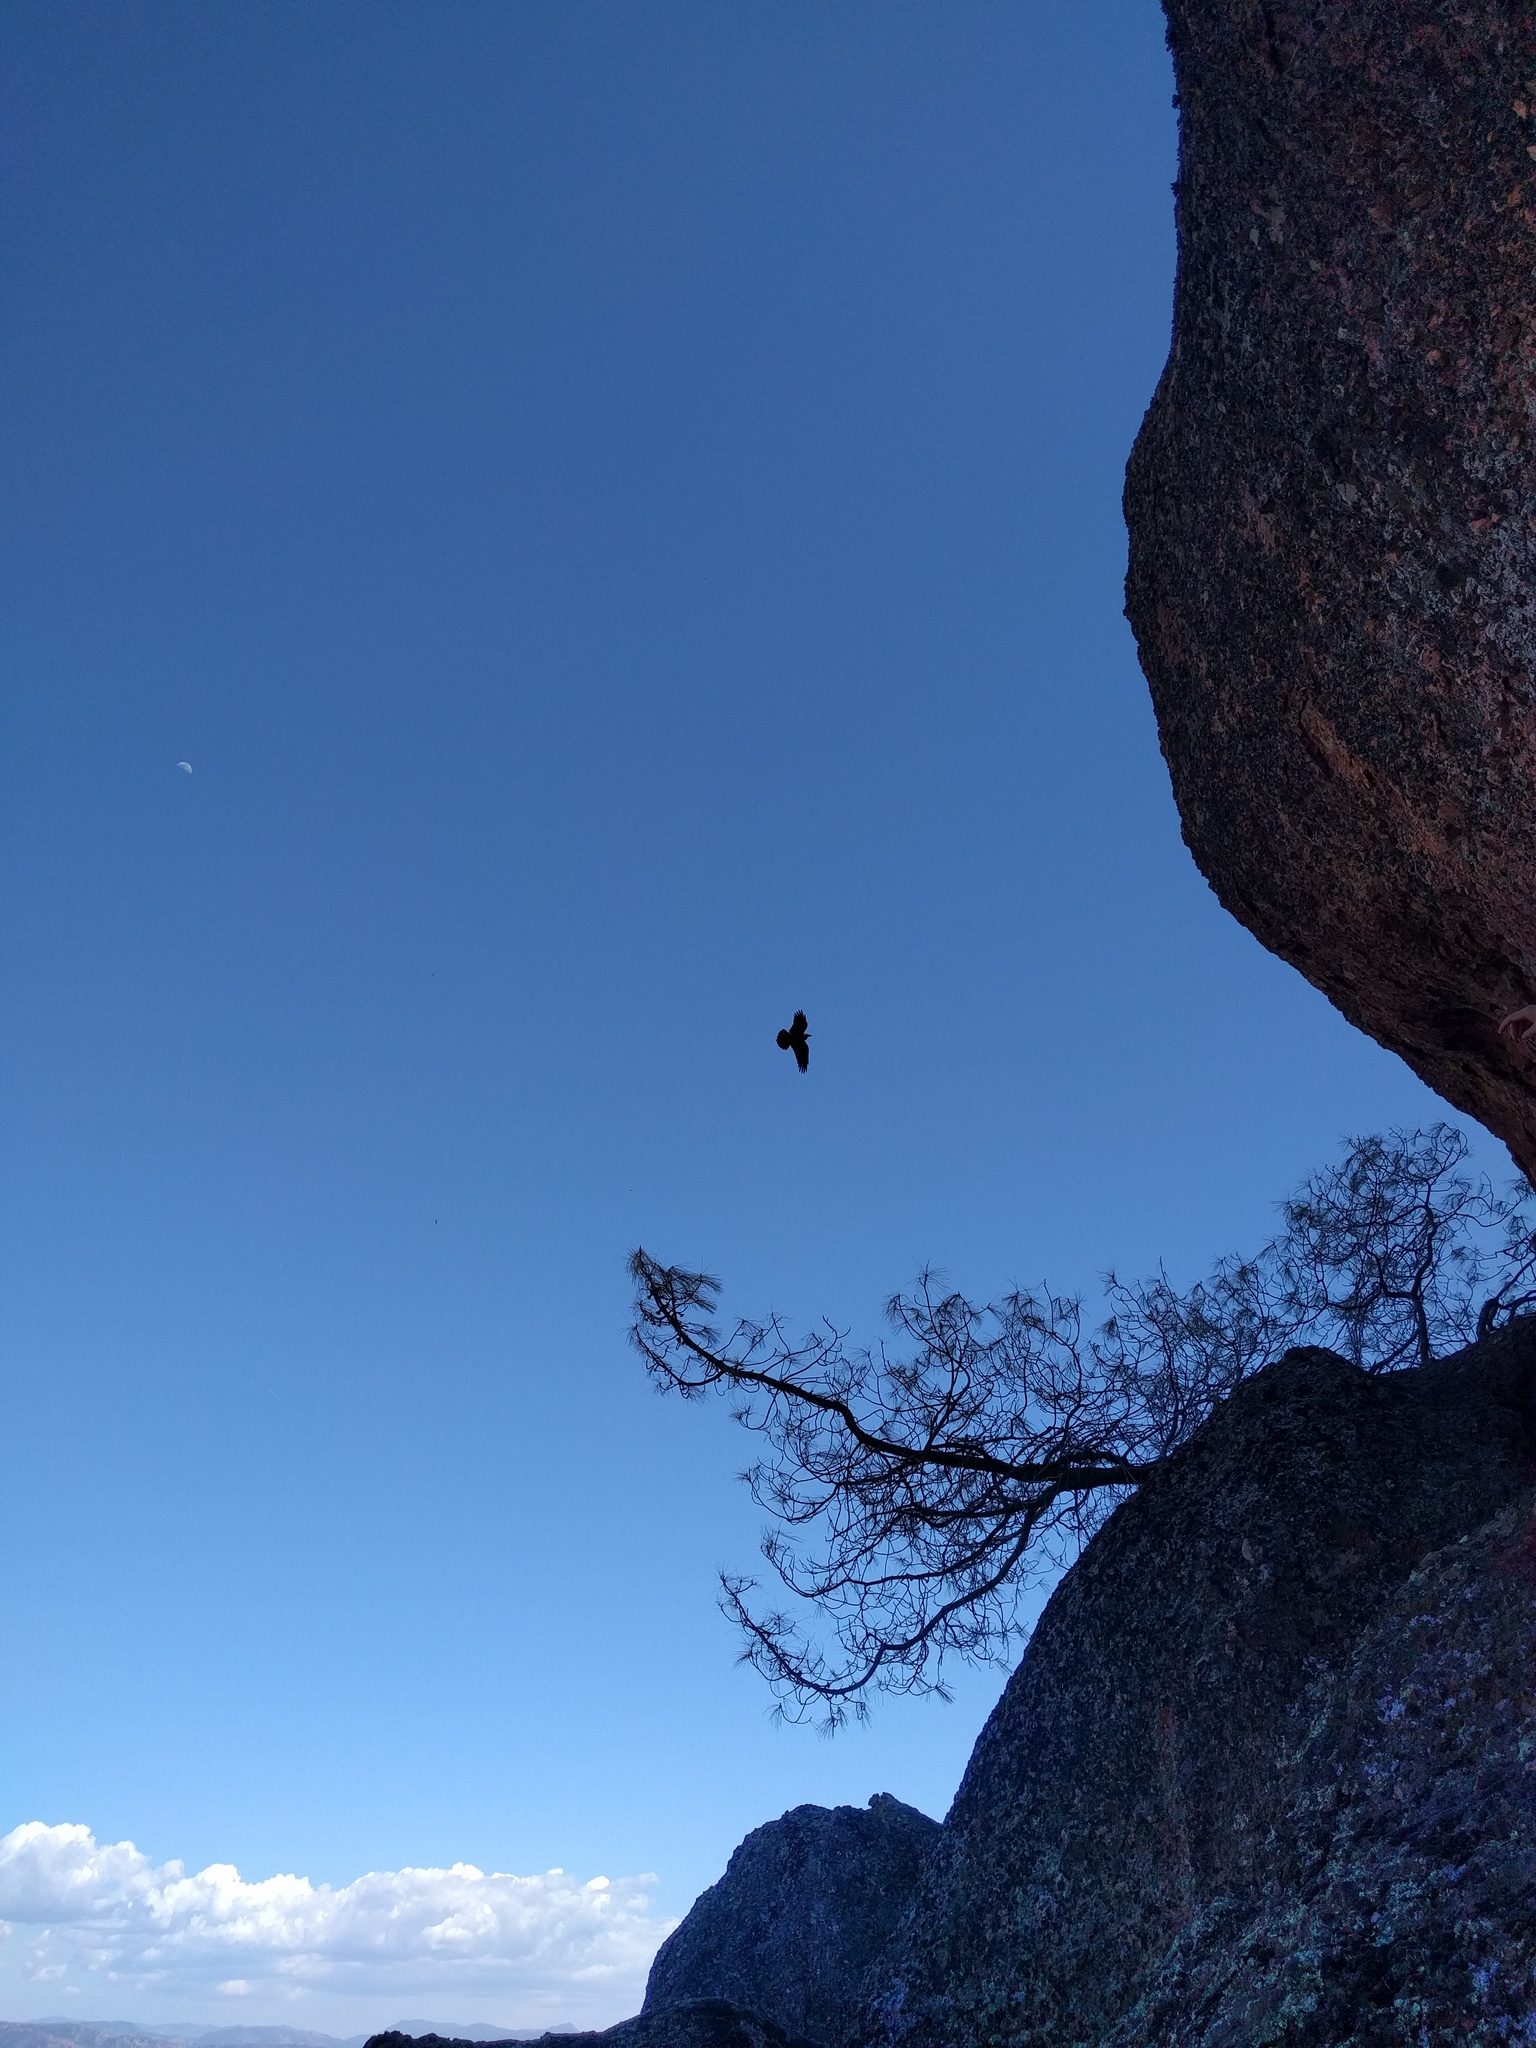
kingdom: Animalia
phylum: Chordata
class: Aves
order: Passeriformes
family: Corvidae
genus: Corvus
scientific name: Corvus corax
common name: Common raven
